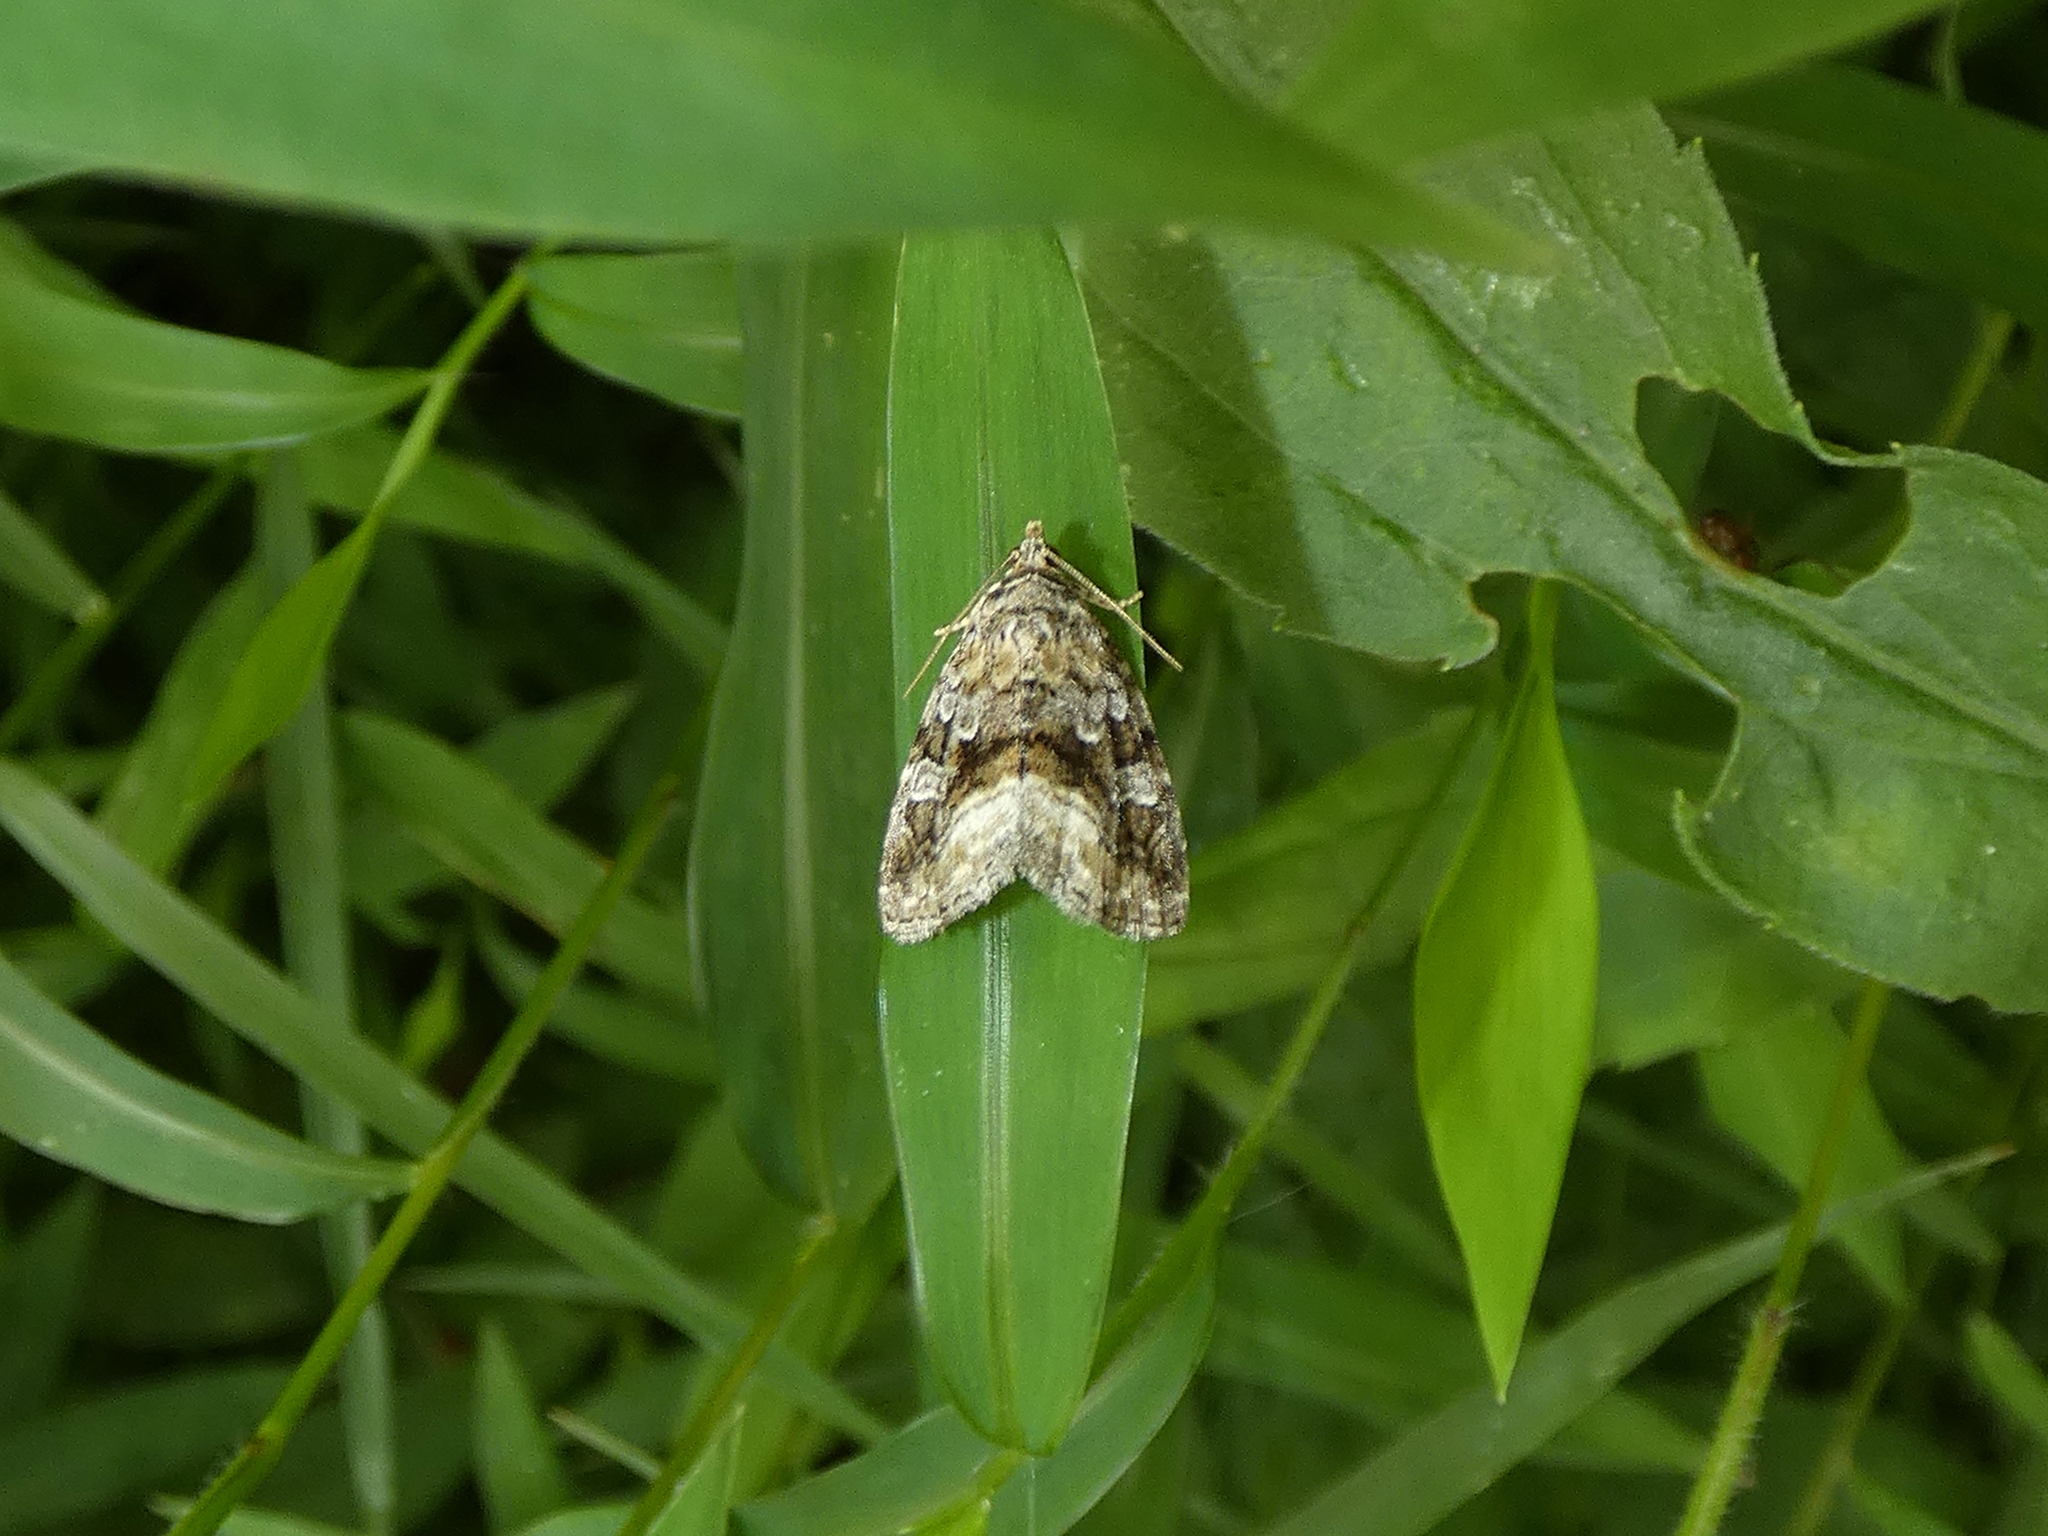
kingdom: Animalia
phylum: Arthropoda
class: Insecta
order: Lepidoptera
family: Noctuidae
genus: Protodeltote
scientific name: Protodeltote muscosula
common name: Large mossy glyph
